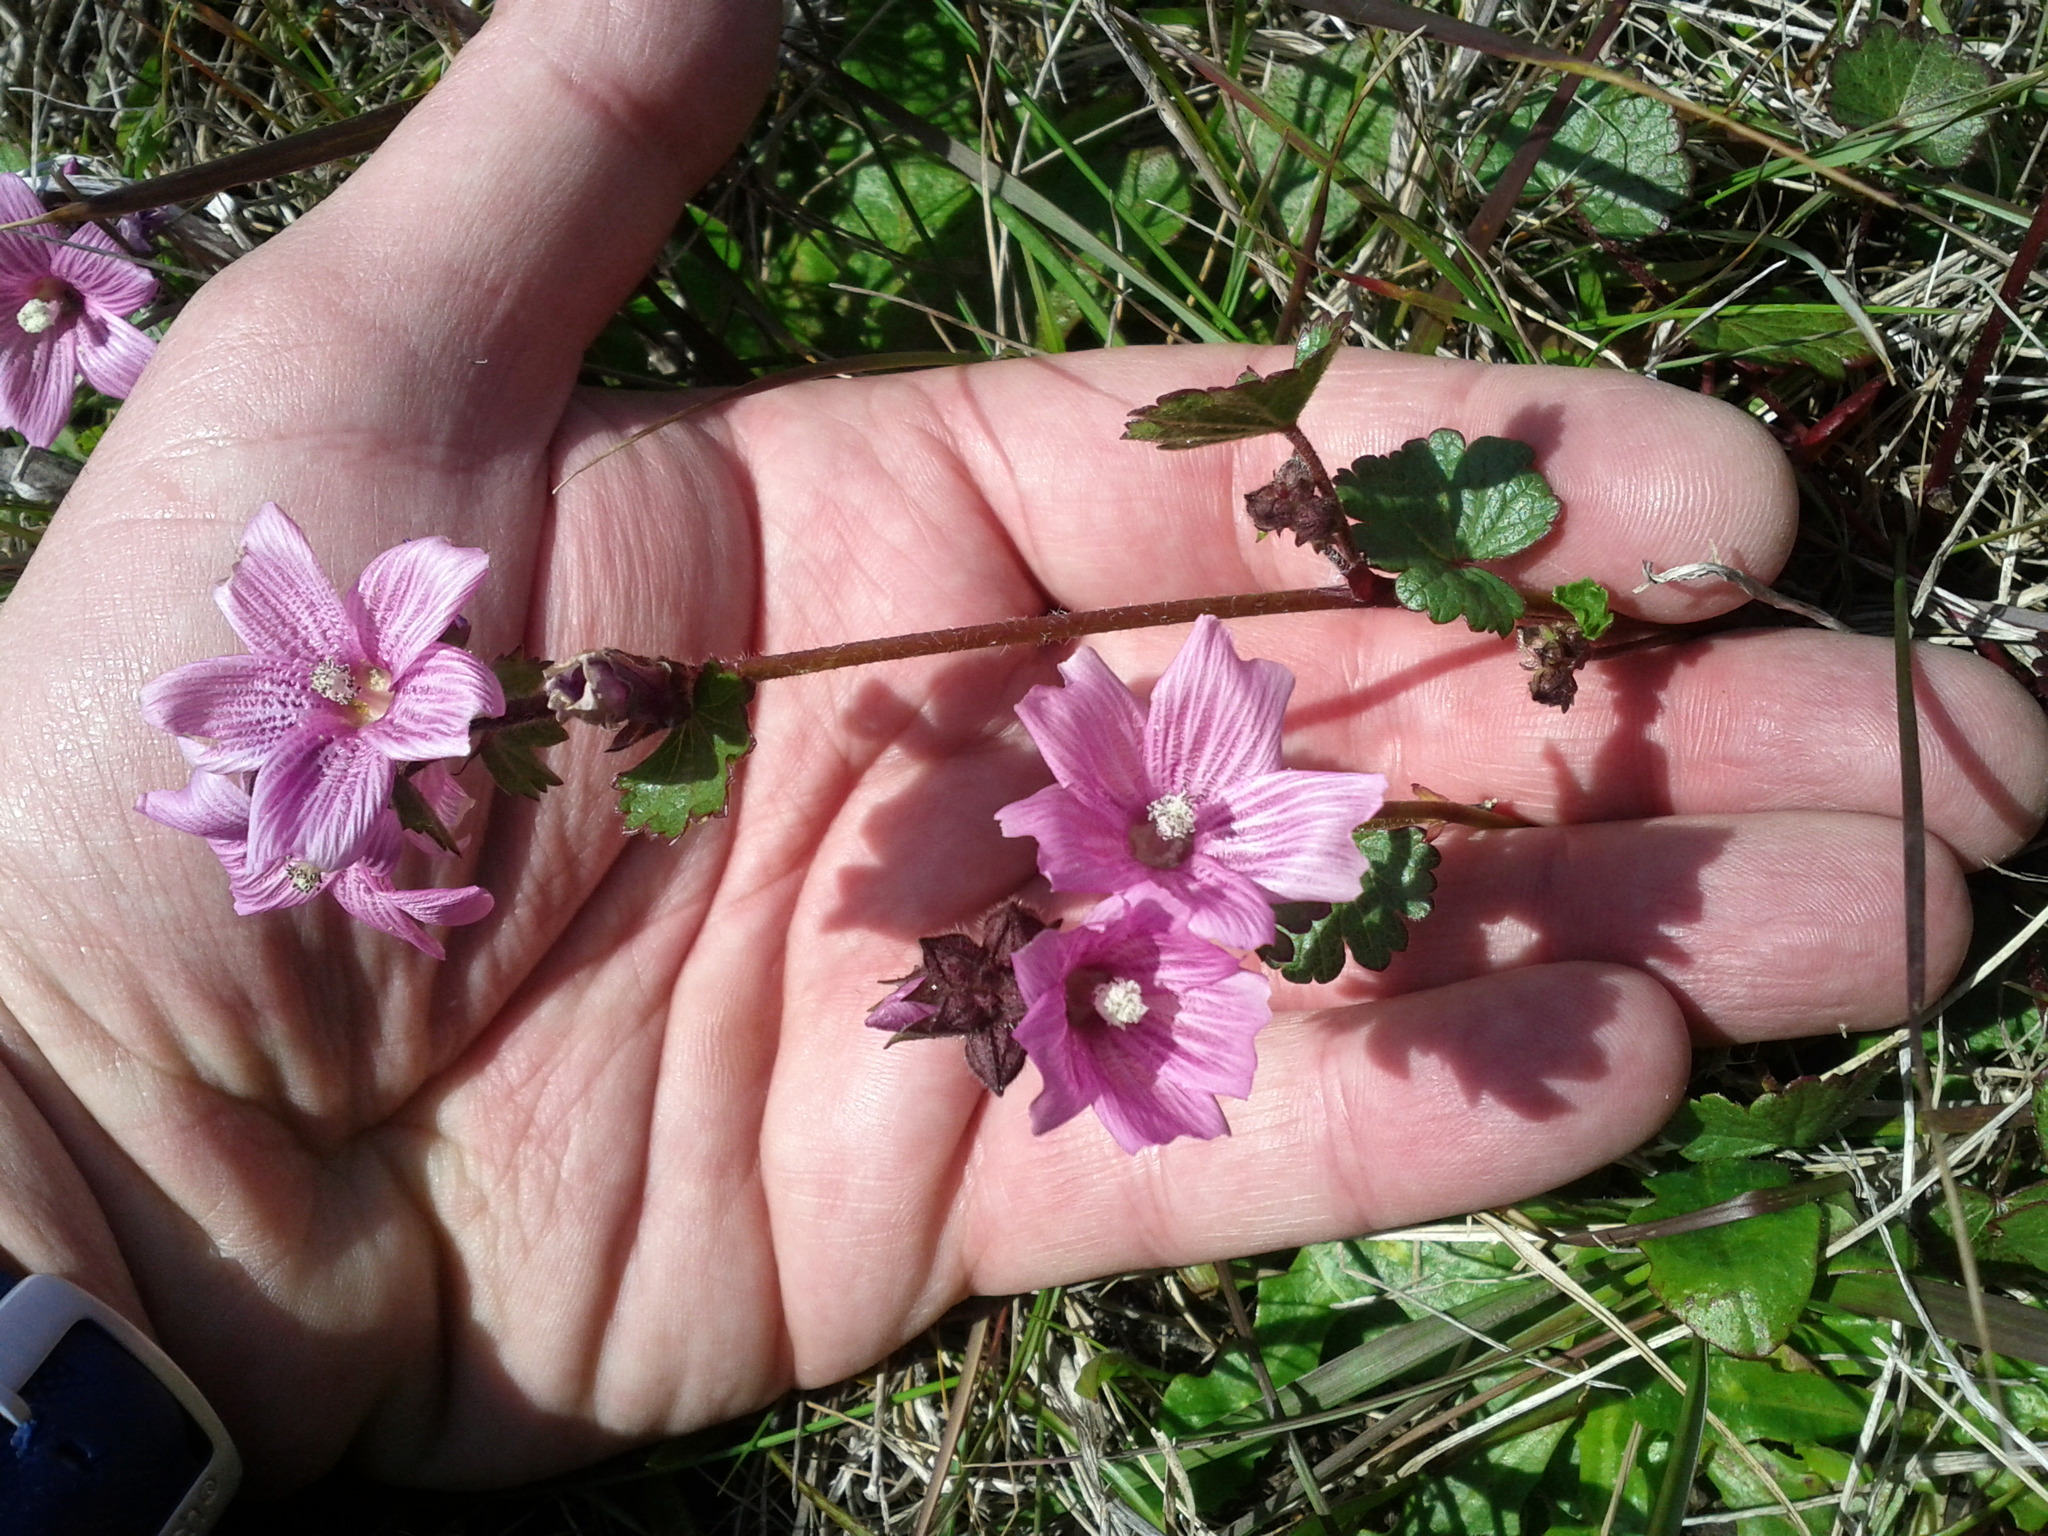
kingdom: Plantae
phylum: Tracheophyta
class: Magnoliopsida
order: Malvales
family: Malvaceae
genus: Sidalcea
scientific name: Sidalcea malviflora
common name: Greek mallow
